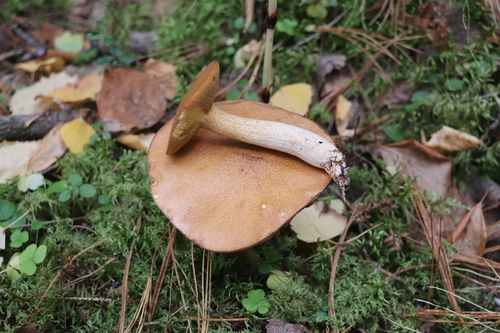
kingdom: Fungi
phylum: Basidiomycota
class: Agaricomycetes
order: Boletales
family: Suillaceae
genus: Suillus
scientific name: Suillus punctipes
